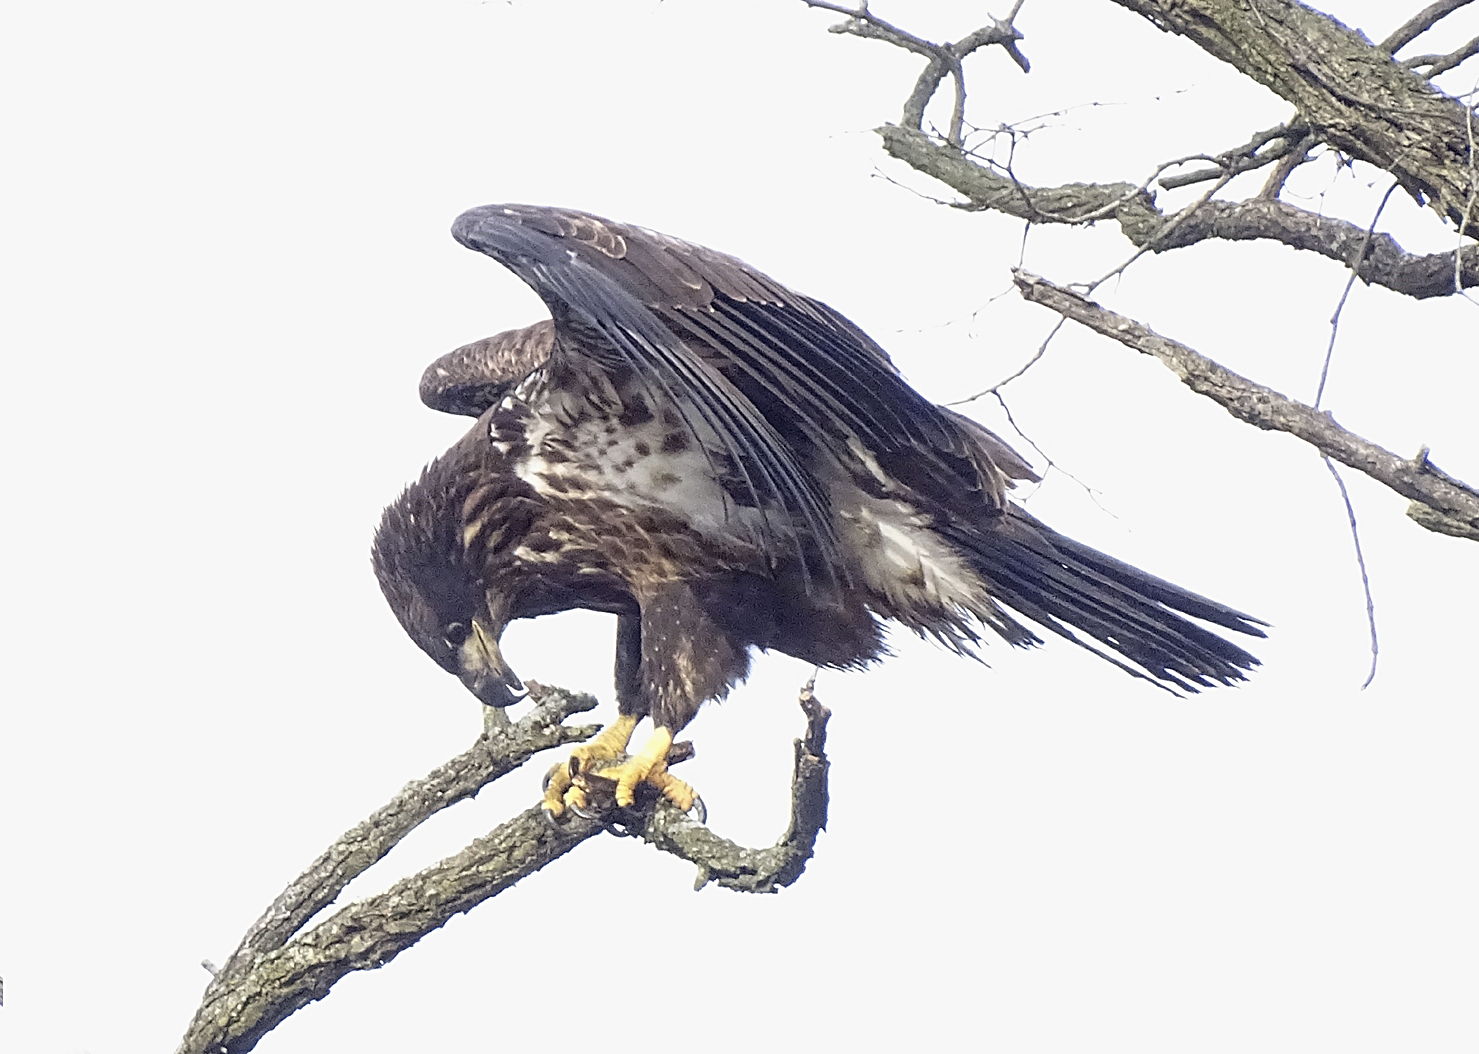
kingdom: Animalia
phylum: Chordata
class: Aves
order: Accipitriformes
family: Accipitridae
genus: Haliaeetus
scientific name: Haliaeetus leucocephalus
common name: Bald eagle
